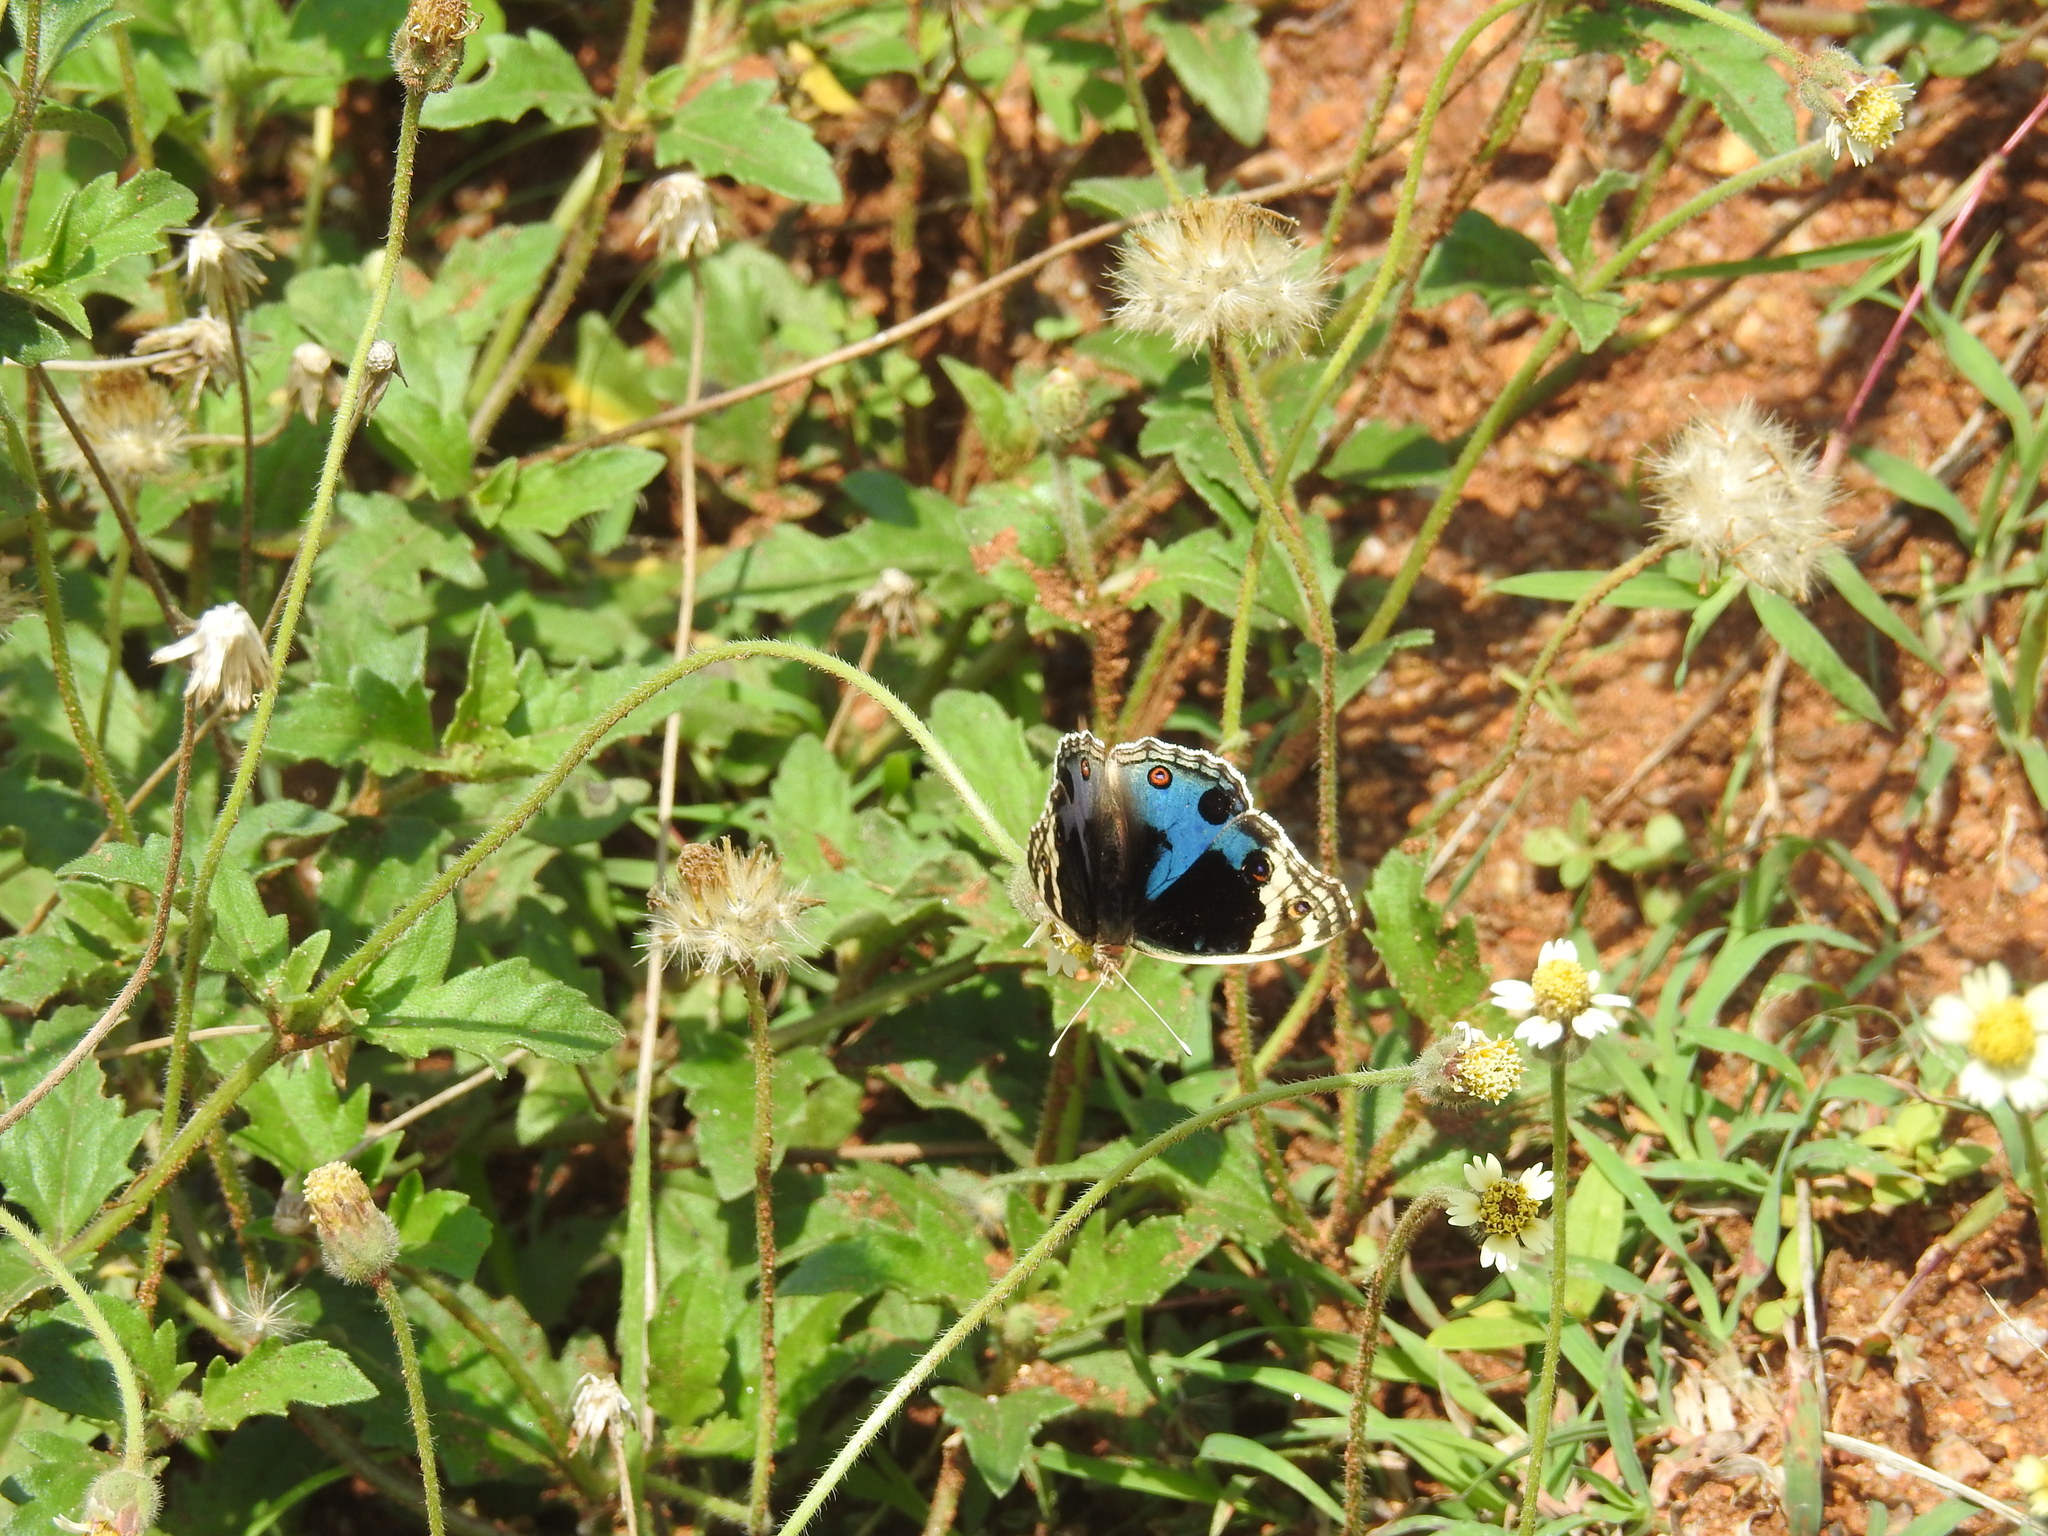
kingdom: Animalia
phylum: Arthropoda
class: Insecta
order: Lepidoptera
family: Nymphalidae
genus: Junonia
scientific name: Junonia orithya
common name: Blue pansy
